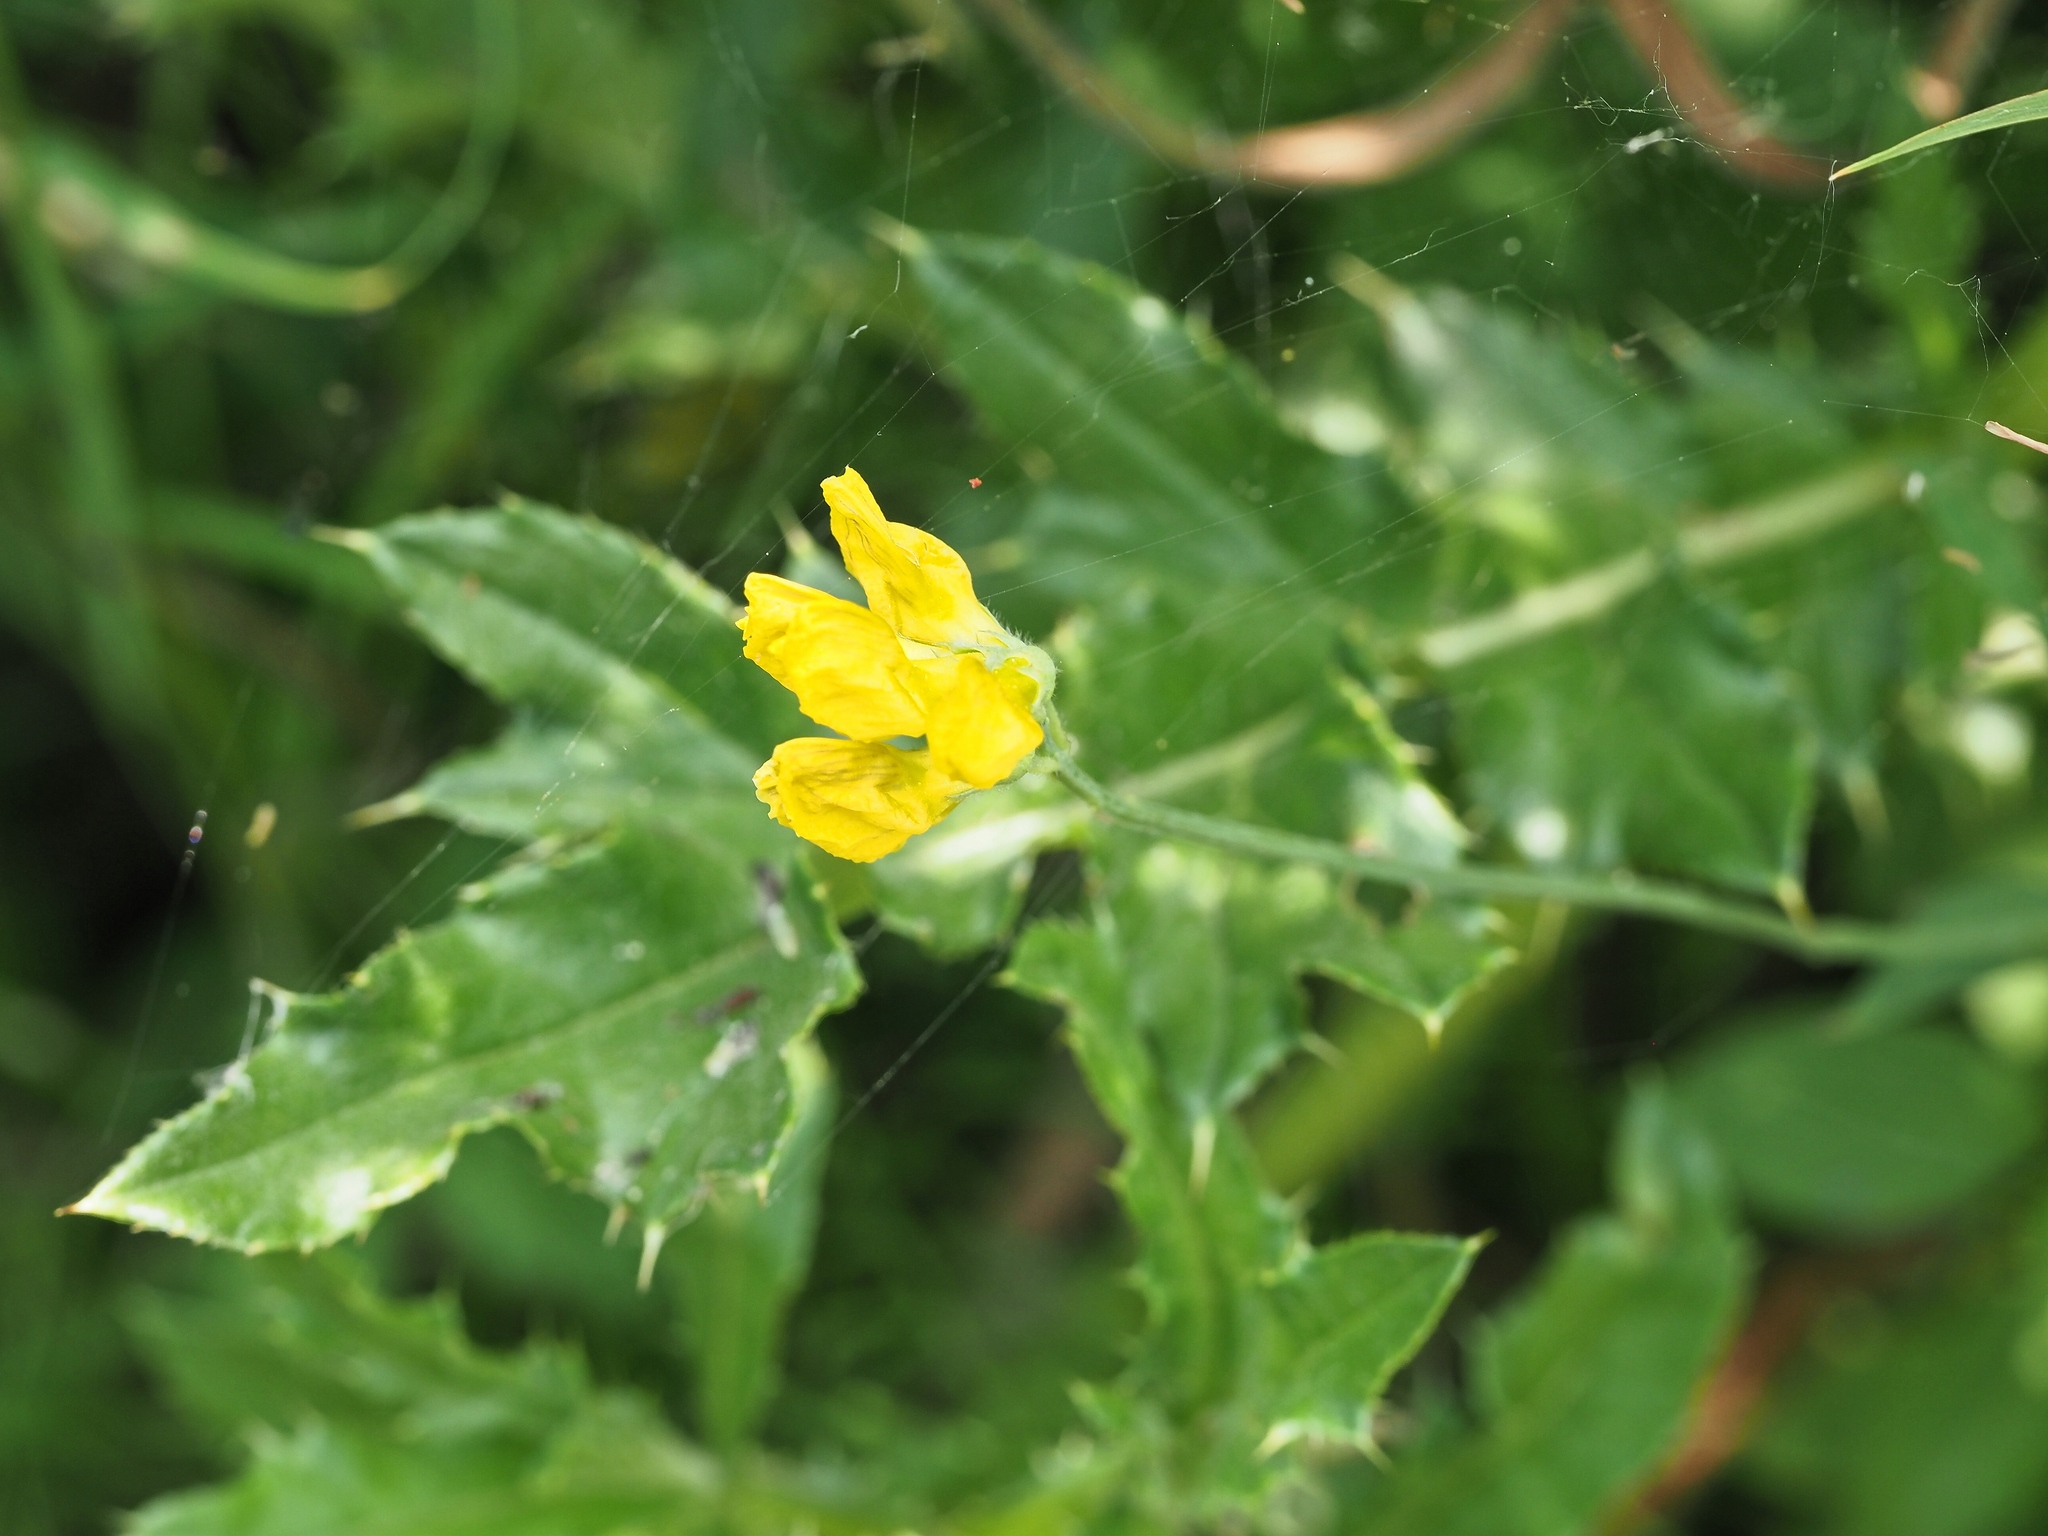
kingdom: Plantae
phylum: Tracheophyta
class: Magnoliopsida
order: Fabales
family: Fabaceae
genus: Lathyrus
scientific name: Lathyrus pratensis
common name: Meadow vetchling
